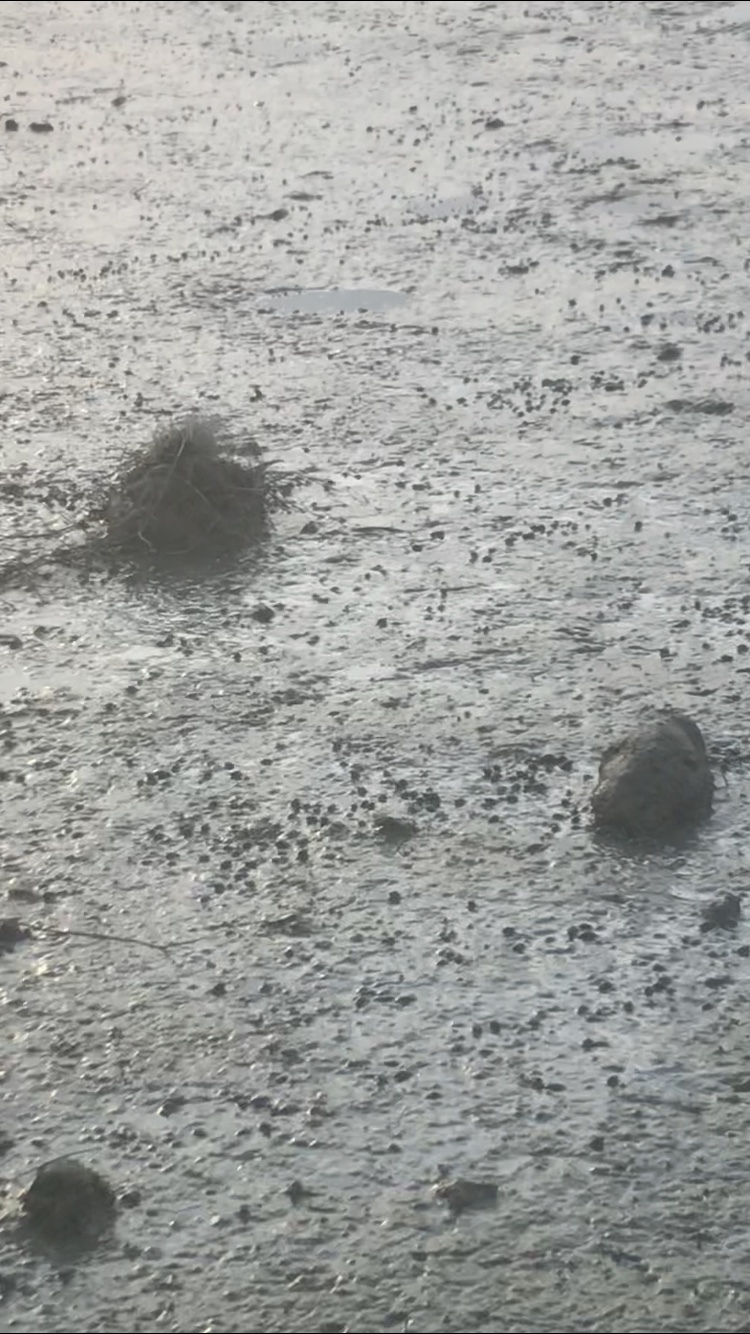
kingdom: Animalia
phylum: Mollusca
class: Gastropoda
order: Neogastropoda
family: Nassariidae
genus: Ilyanassa
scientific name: Ilyanassa obsoleta
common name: Eastern mudsnail
